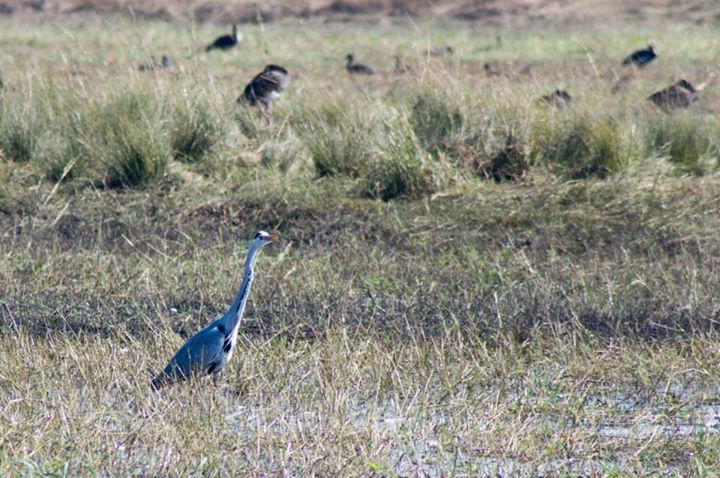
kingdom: Animalia
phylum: Chordata
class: Aves
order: Pelecaniformes
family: Ardeidae
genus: Ardea
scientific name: Ardea cinerea
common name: Grey heron
